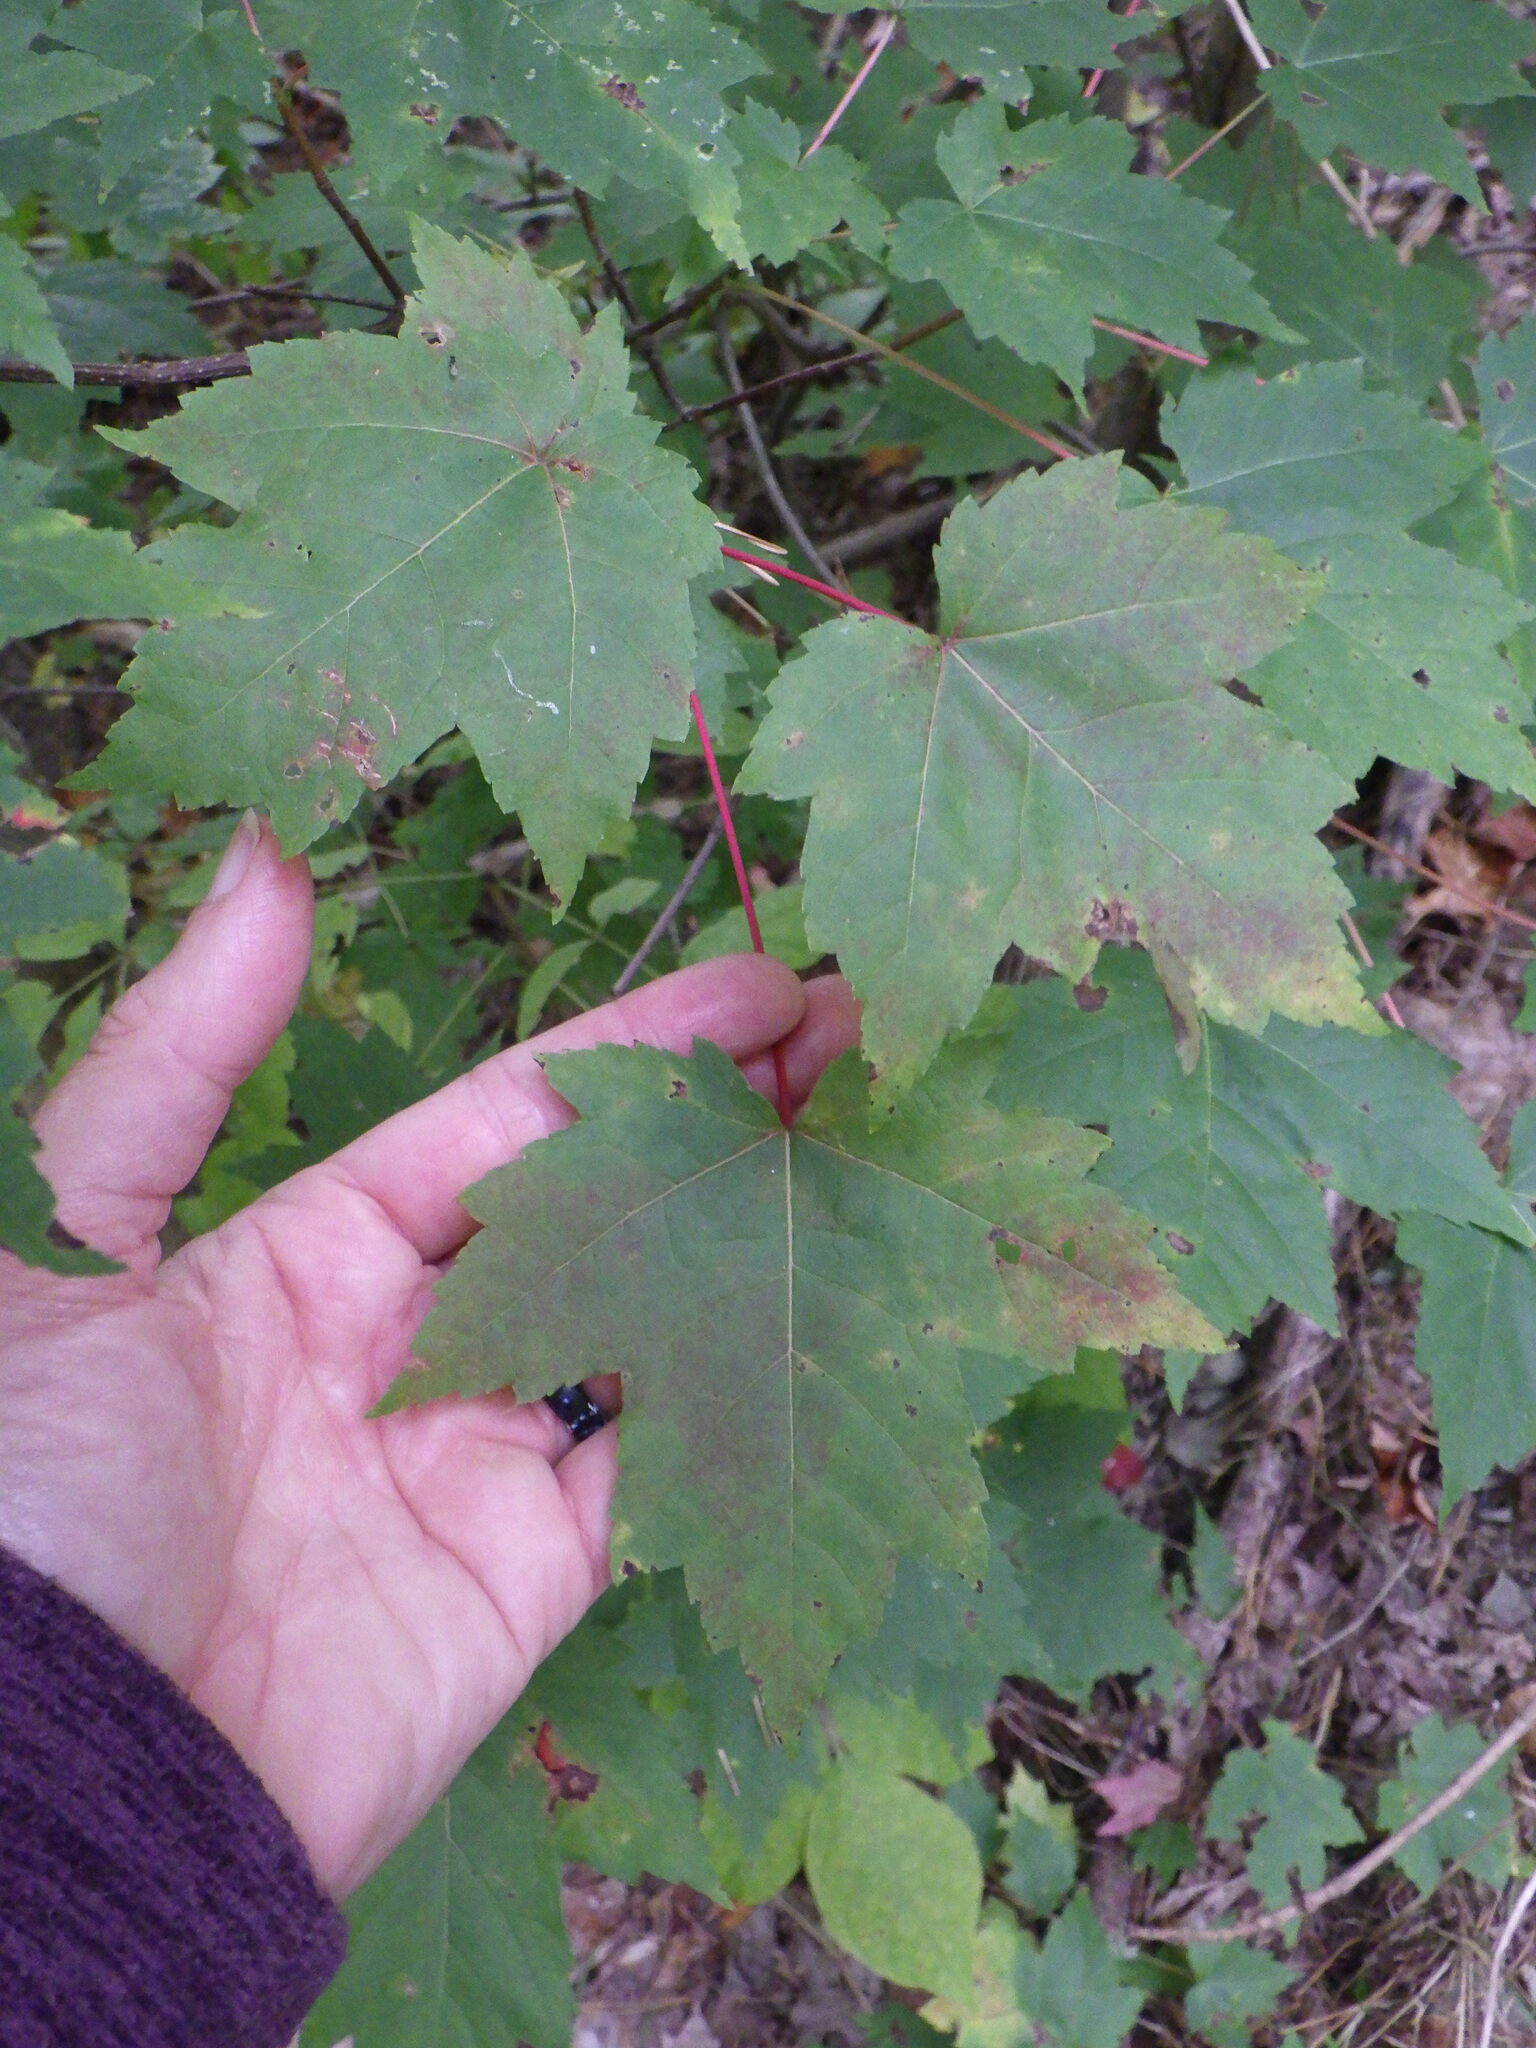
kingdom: Plantae
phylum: Tracheophyta
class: Magnoliopsida
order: Sapindales
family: Sapindaceae
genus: Acer
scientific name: Acer rubrum
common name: Red maple
